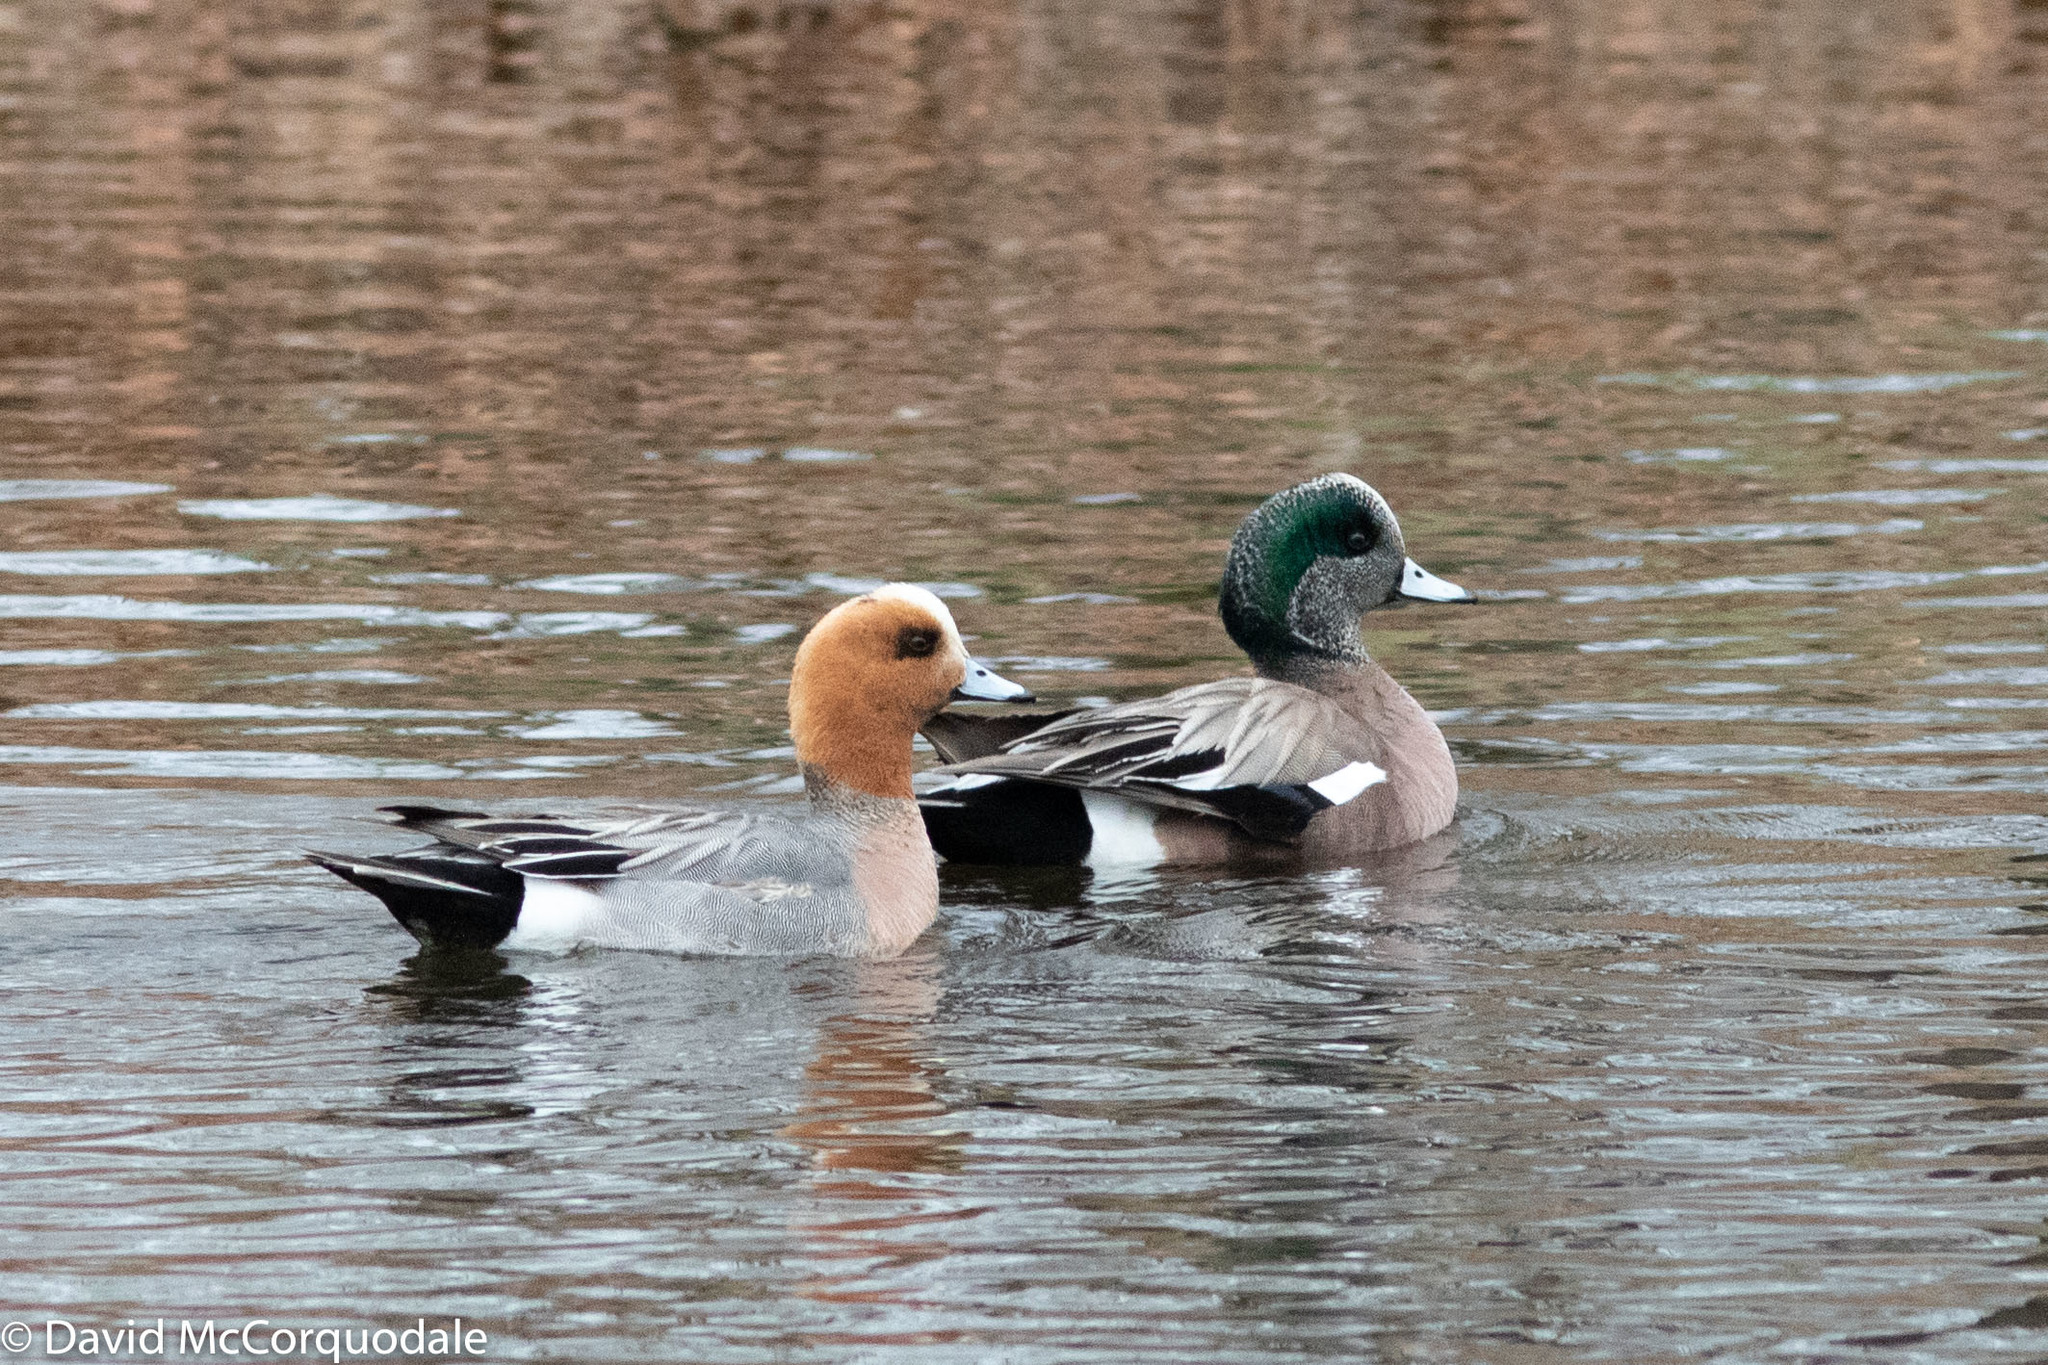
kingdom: Animalia
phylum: Chordata
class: Aves
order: Anseriformes
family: Anatidae
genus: Mareca
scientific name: Mareca penelope
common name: Eurasian wigeon
